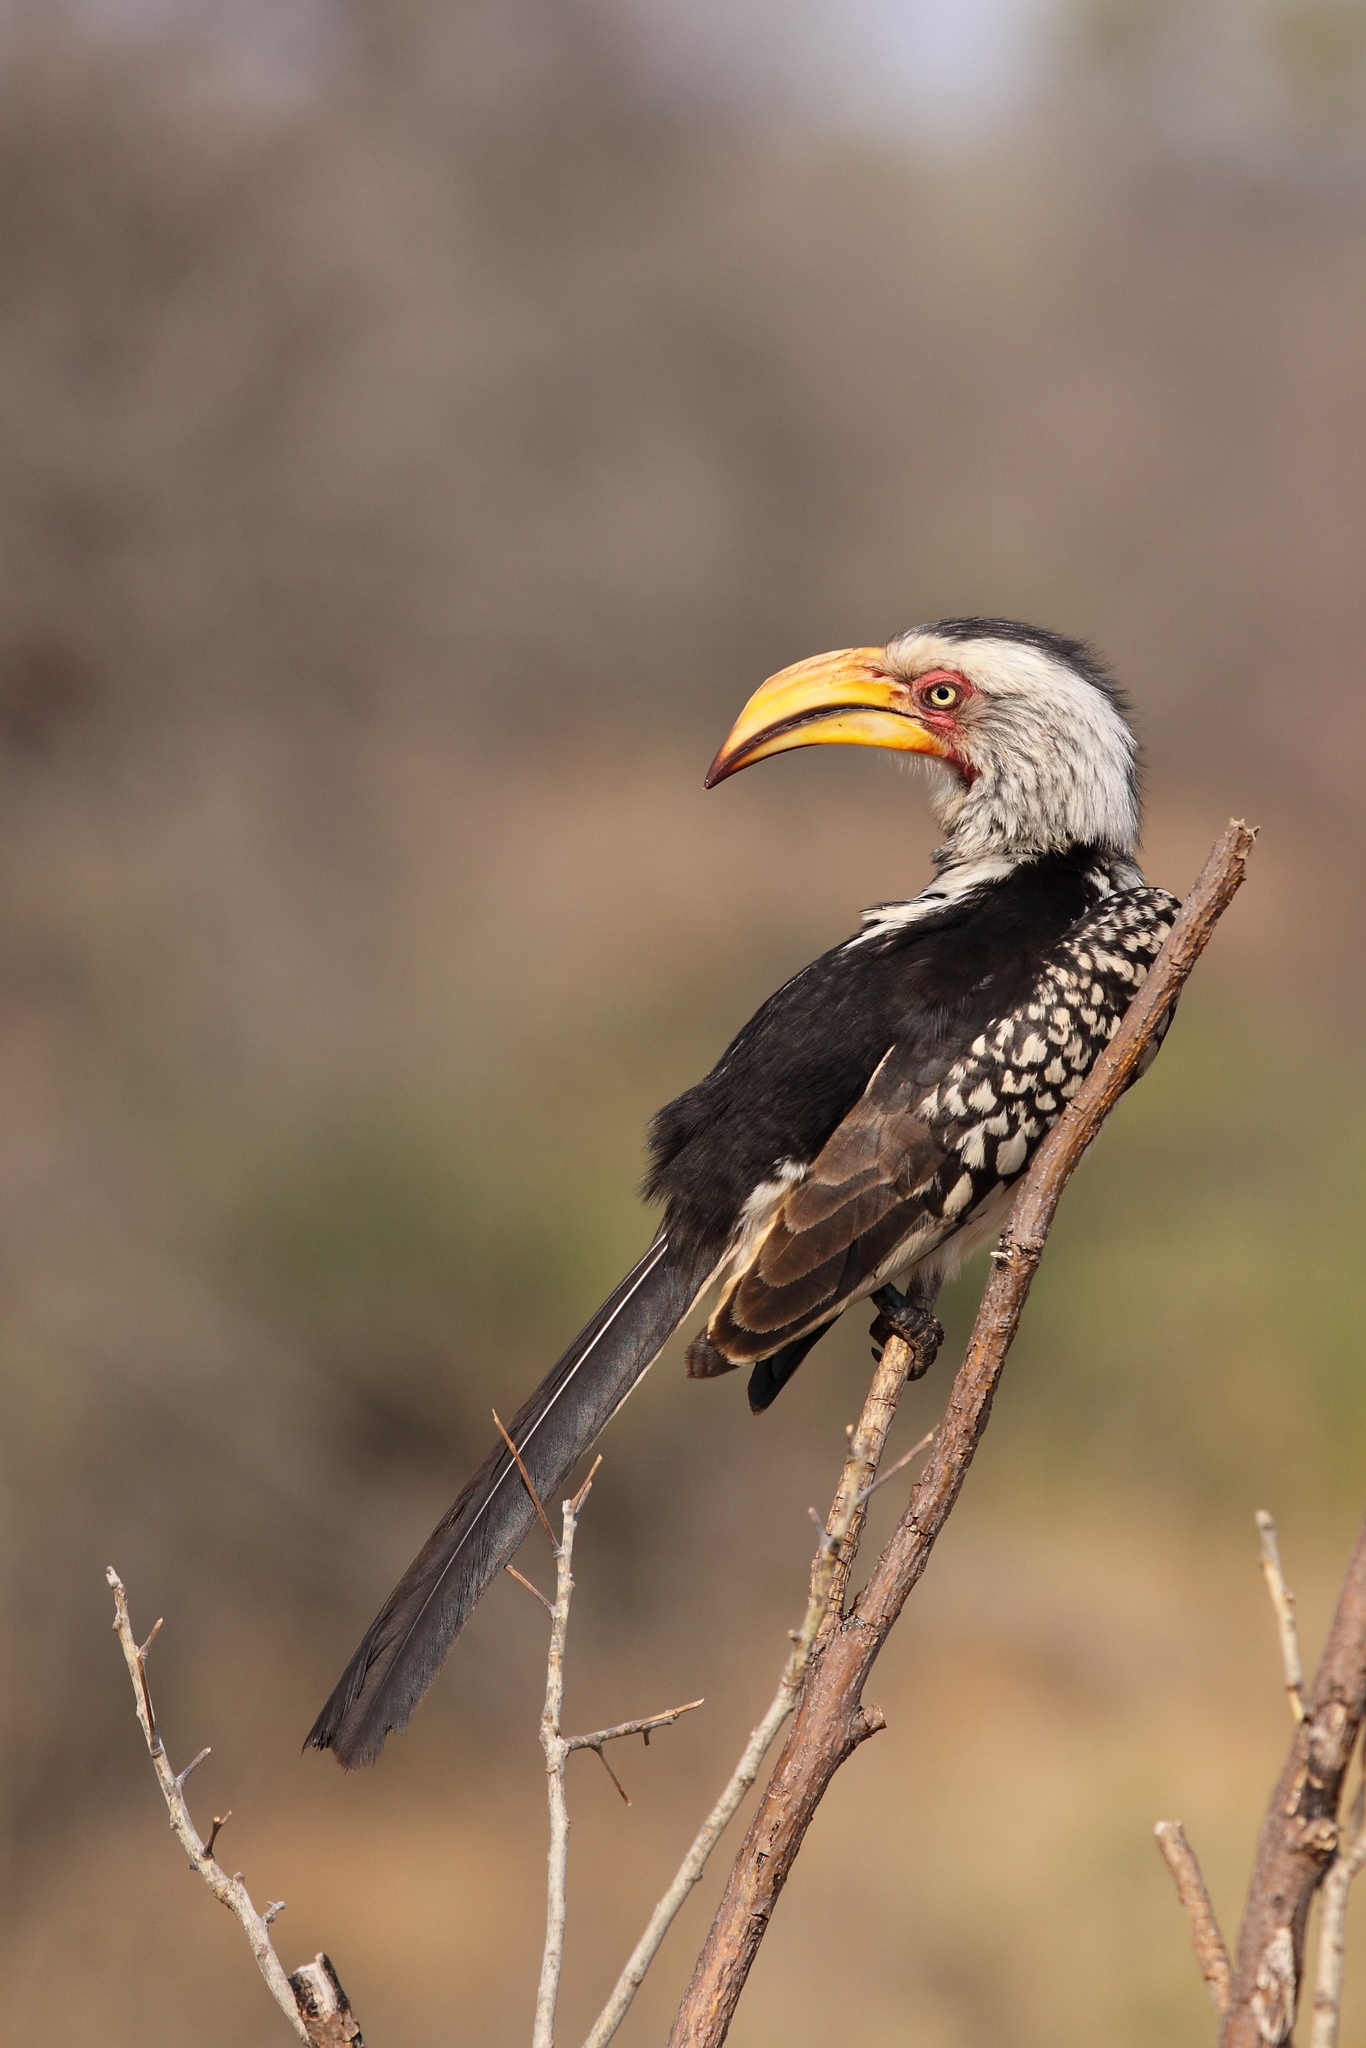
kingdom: Animalia
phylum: Chordata
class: Aves
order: Bucerotiformes
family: Bucerotidae
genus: Tockus
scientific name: Tockus leucomelas
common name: Southern yellow-billed hornbill
